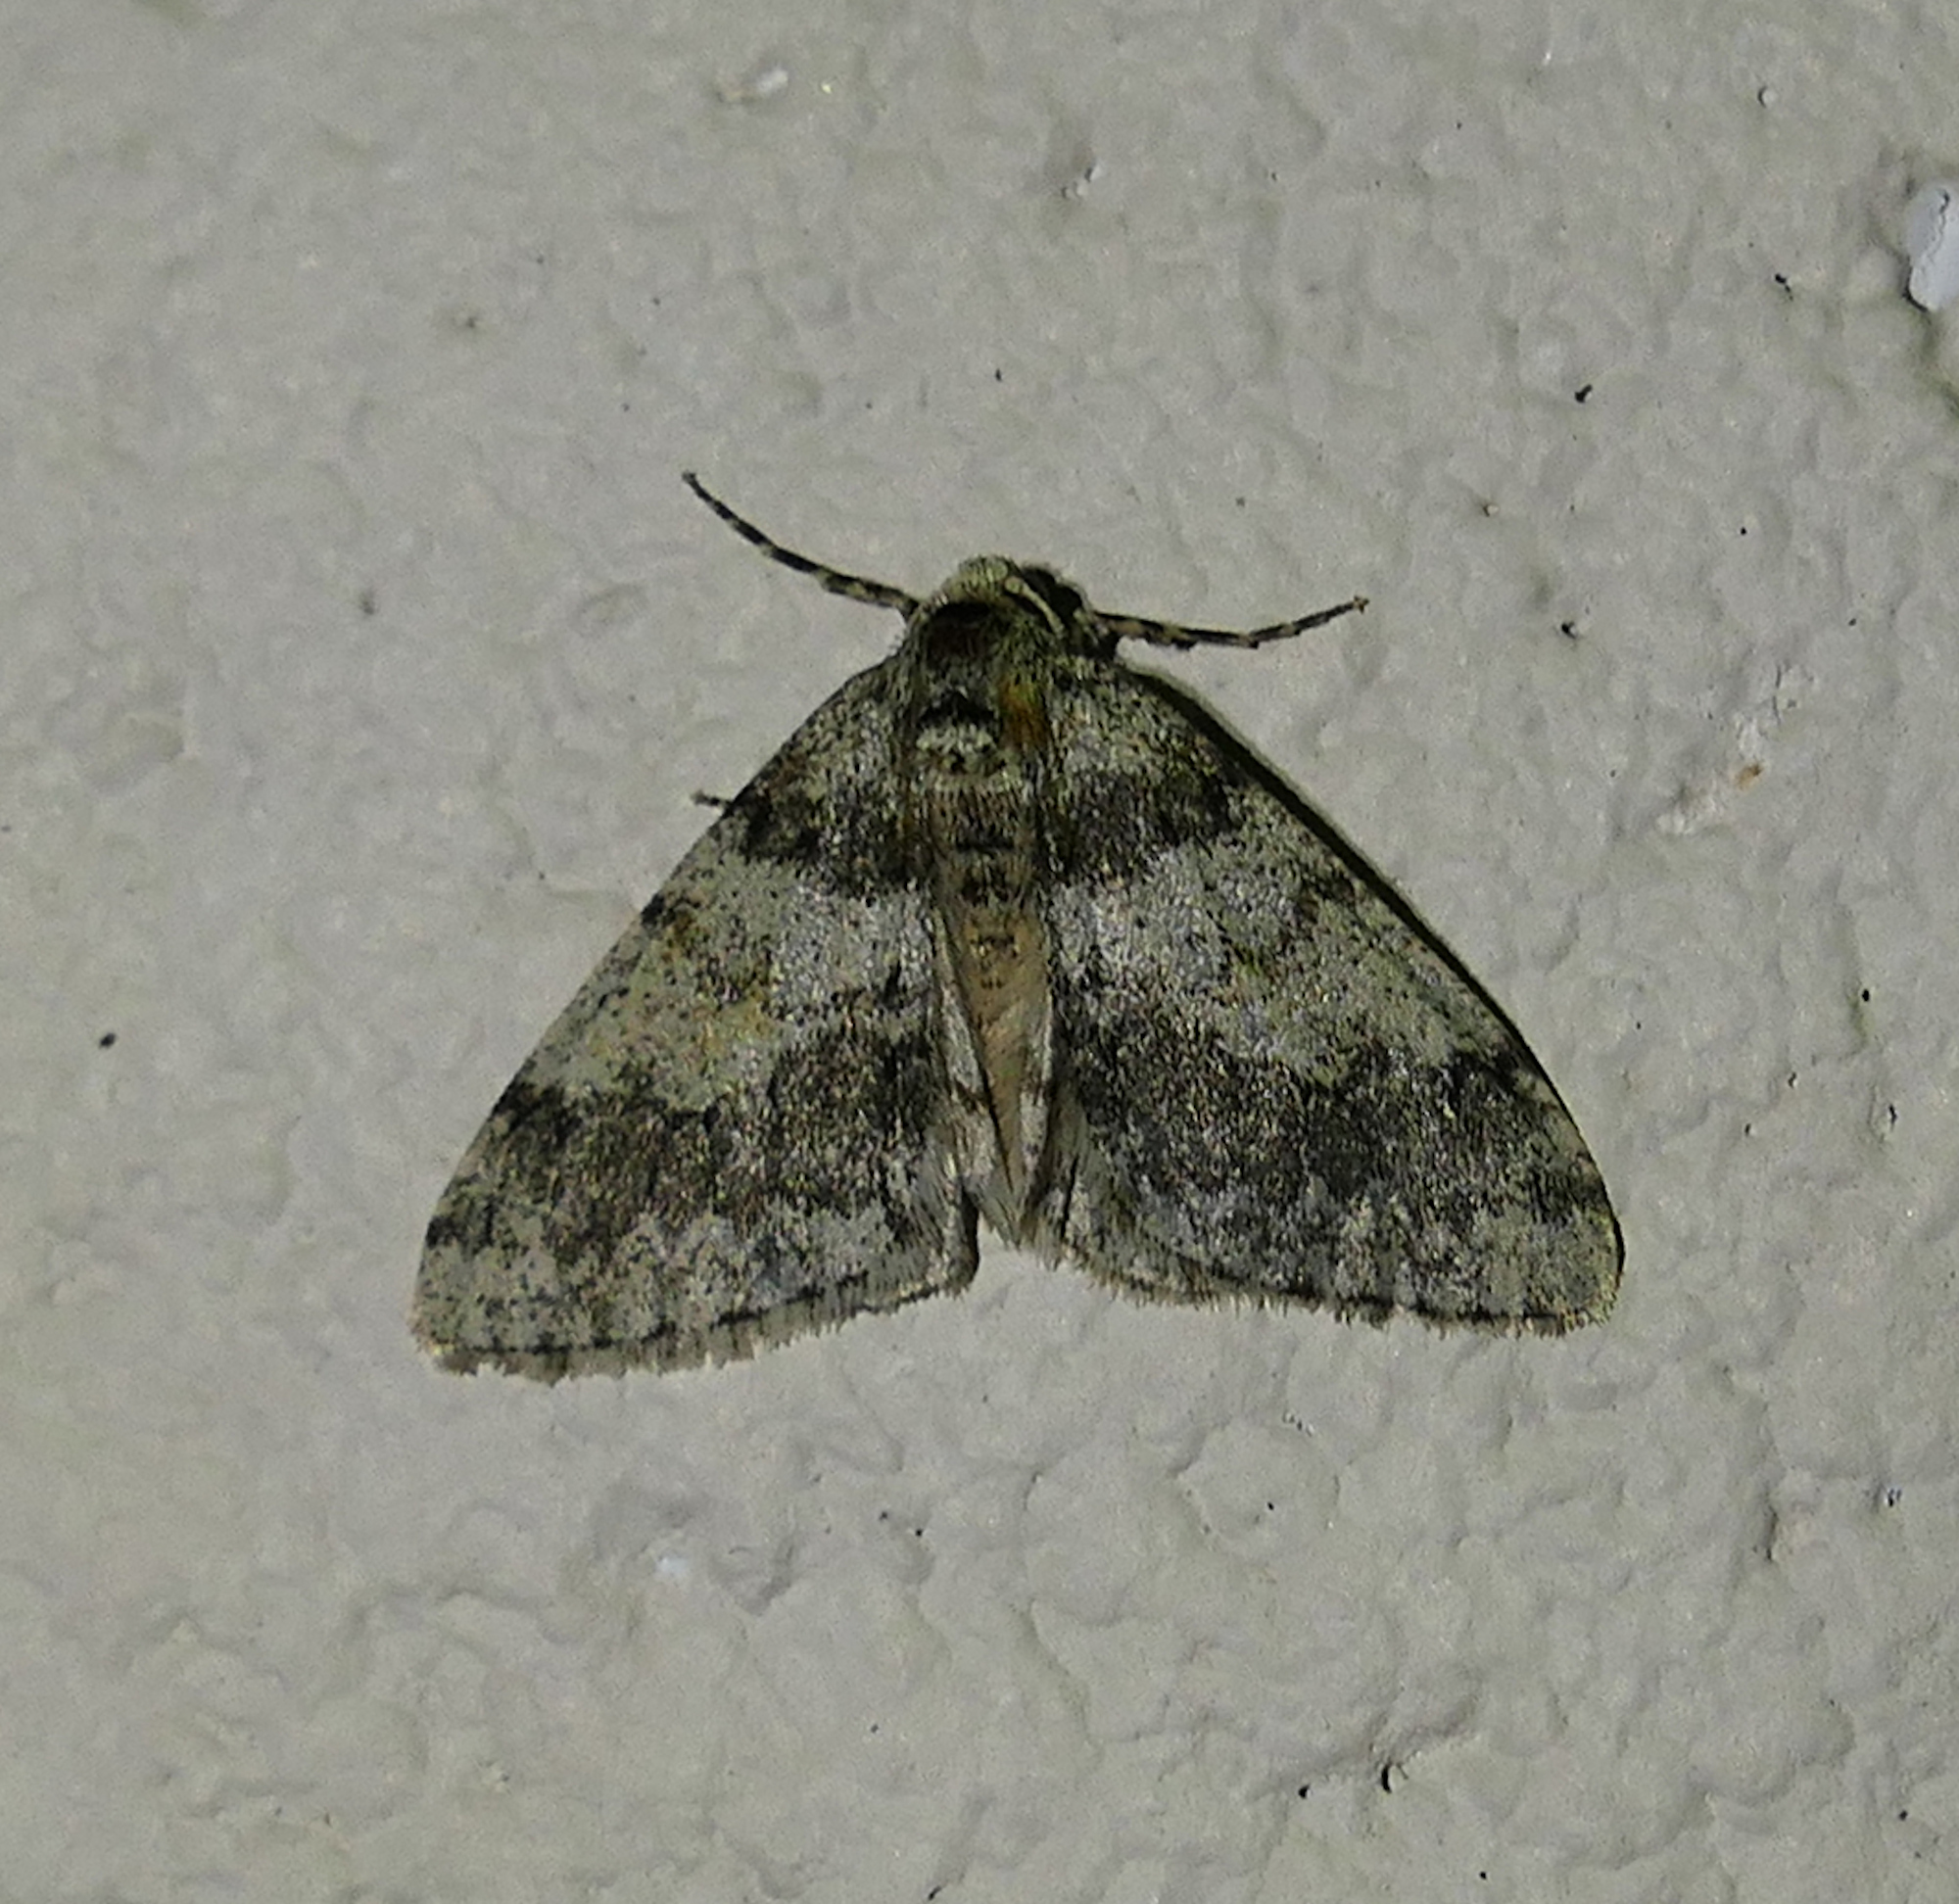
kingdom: Animalia
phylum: Arthropoda
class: Insecta
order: Lepidoptera
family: Geometridae
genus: Phigalia
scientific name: Phigalia strigataria
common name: Small phigalia
